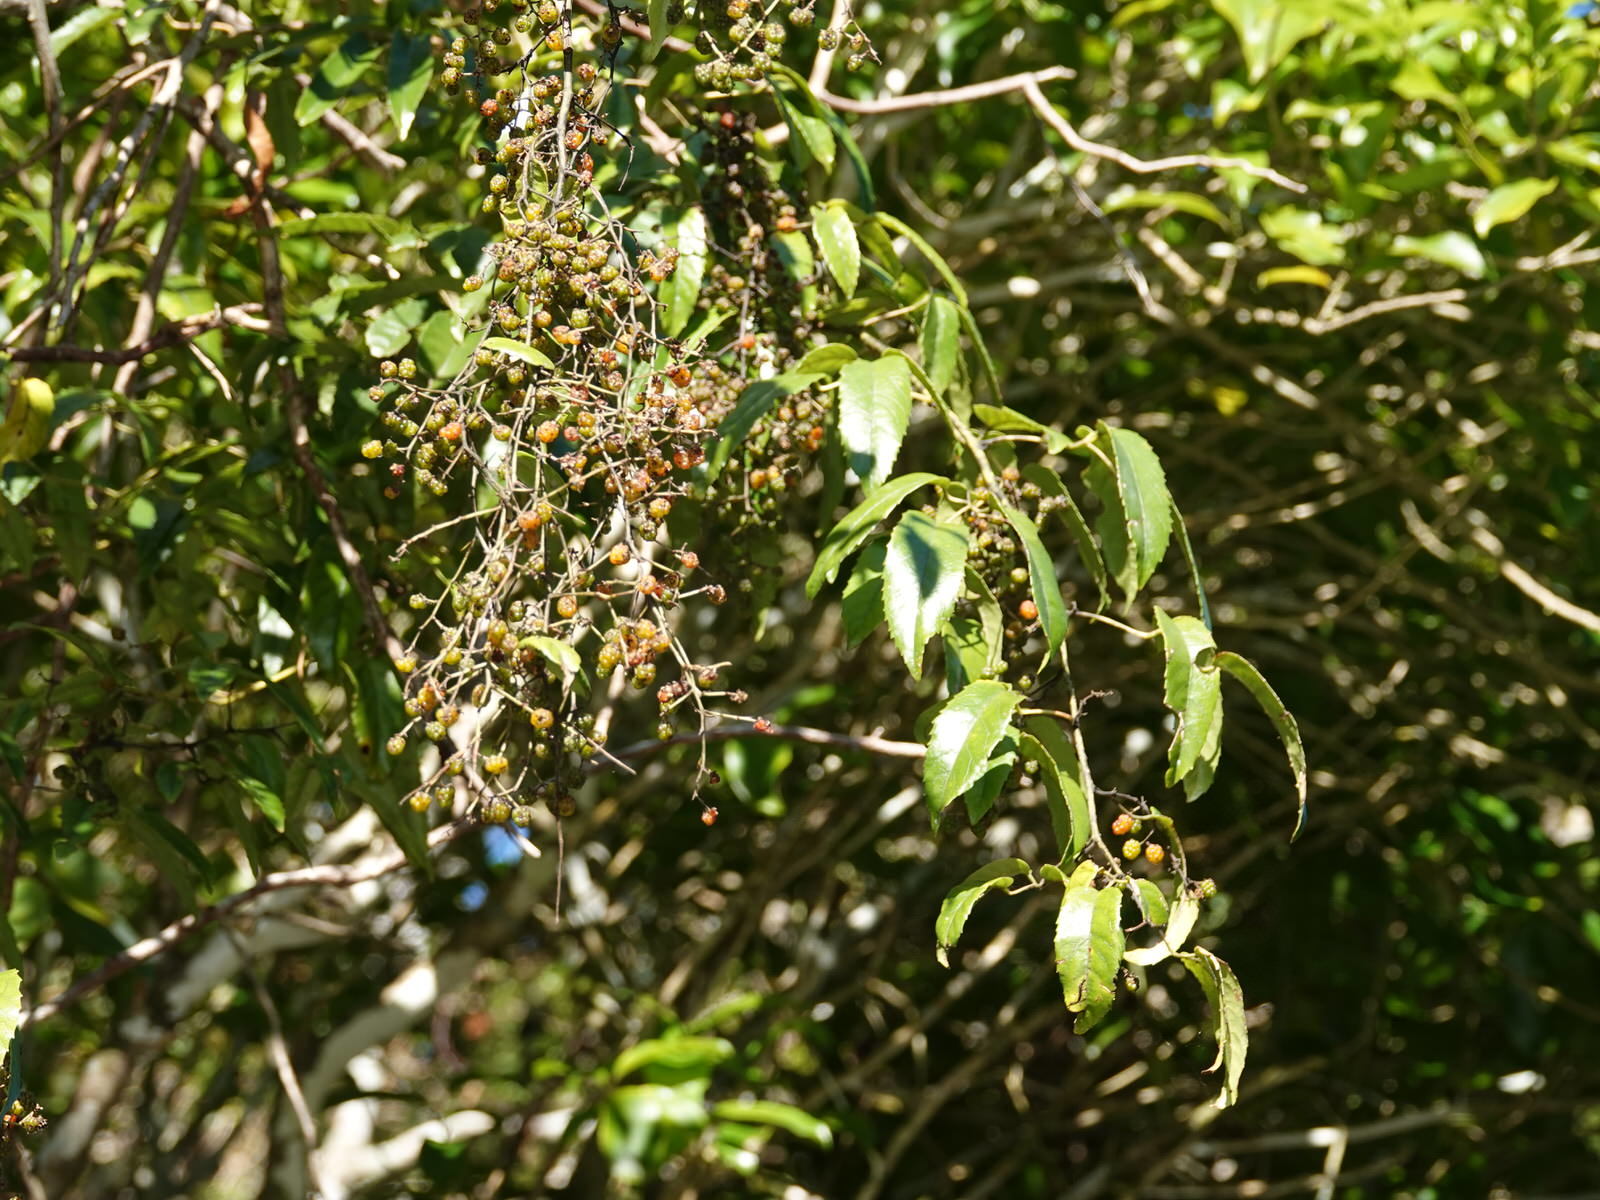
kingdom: Plantae
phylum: Tracheophyta
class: Magnoliopsida
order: Rosales
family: Rosaceae
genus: Rubus
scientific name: Rubus cissoides
